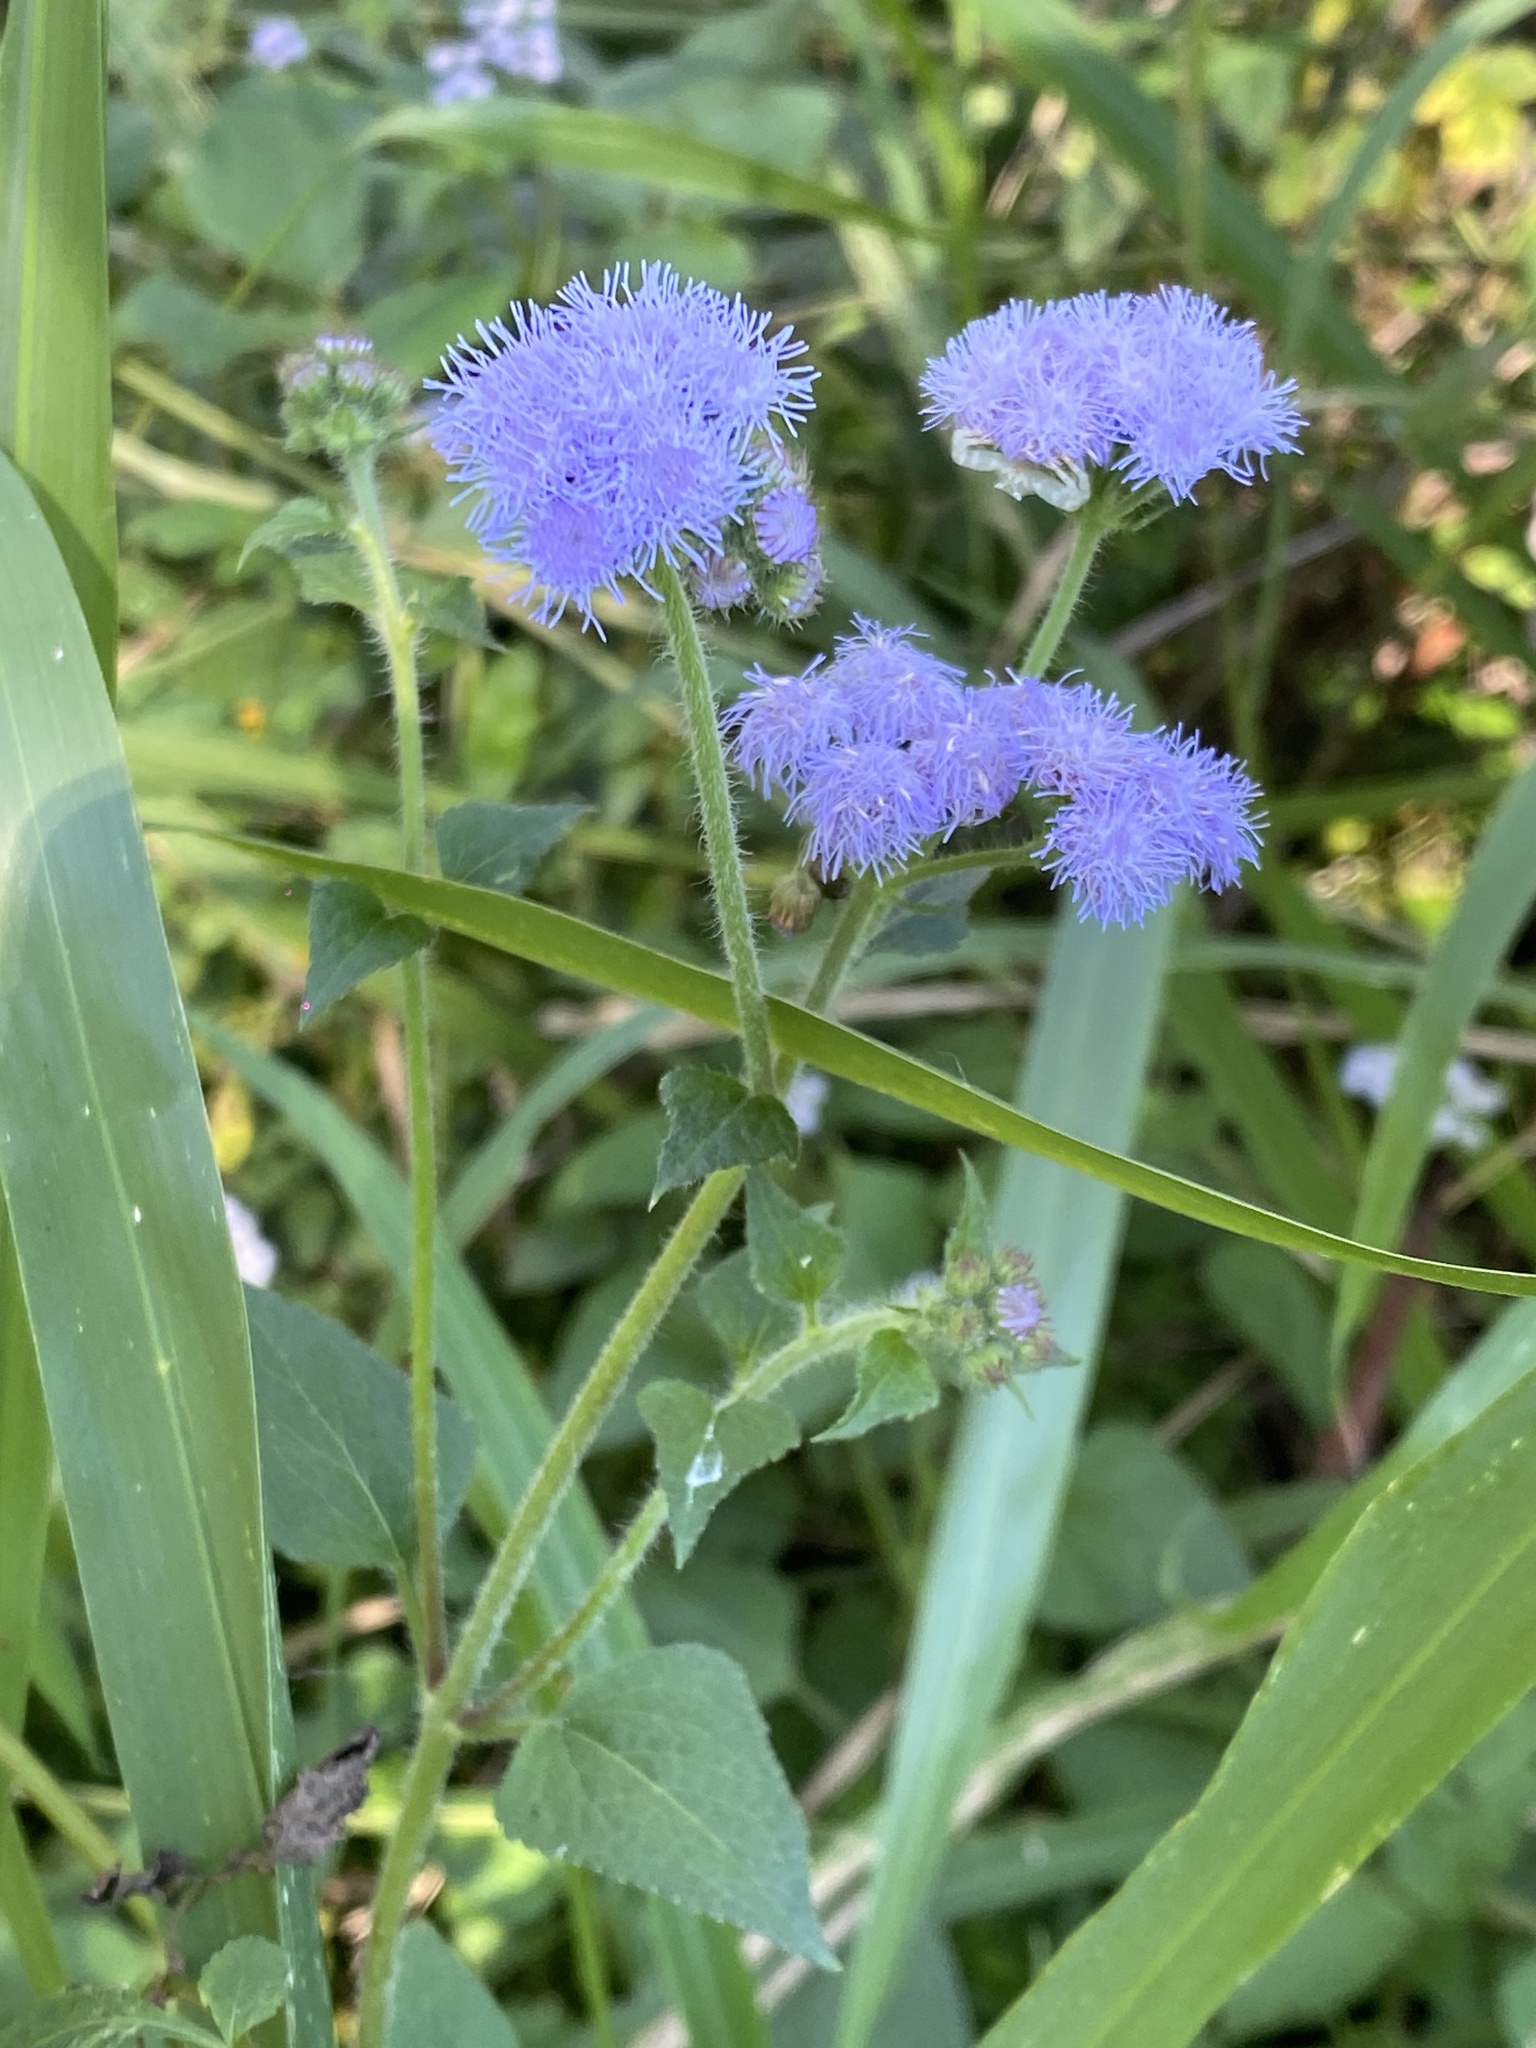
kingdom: Plantae
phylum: Tracheophyta
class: Magnoliopsida
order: Asterales
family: Asteraceae
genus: Ageratum
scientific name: Ageratum houstonianum
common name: Bluemink
